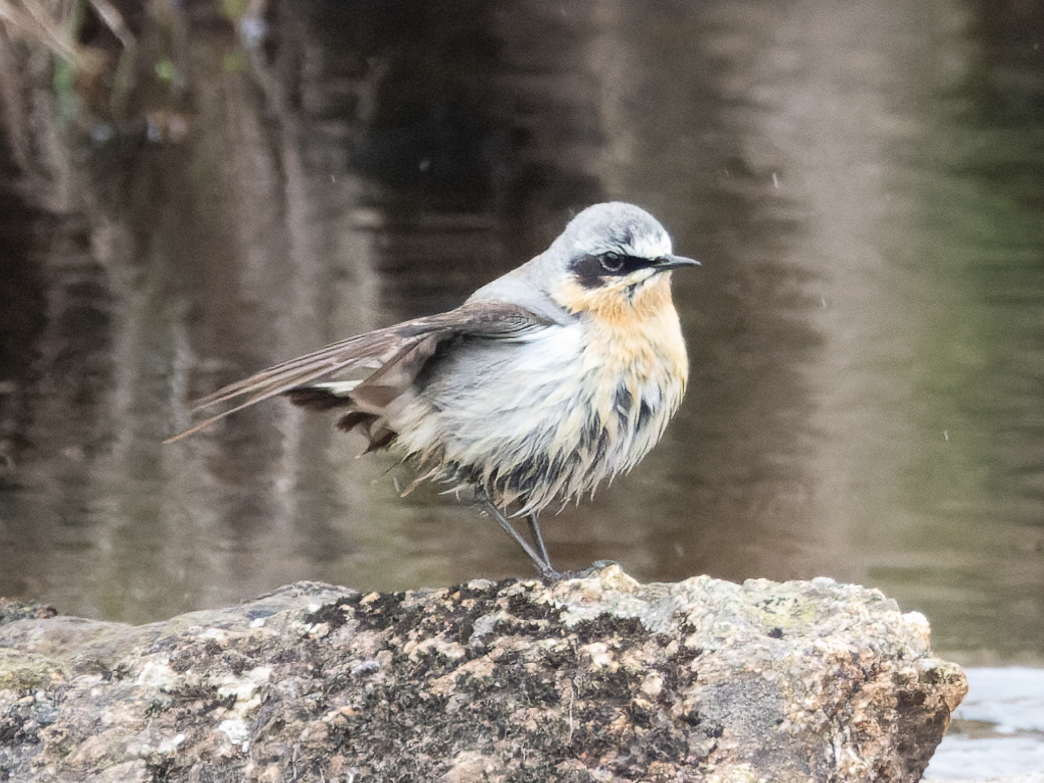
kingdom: Animalia
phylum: Chordata
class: Aves
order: Passeriformes
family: Muscicapidae
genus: Oenanthe
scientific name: Oenanthe oenanthe
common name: Northern wheatear
